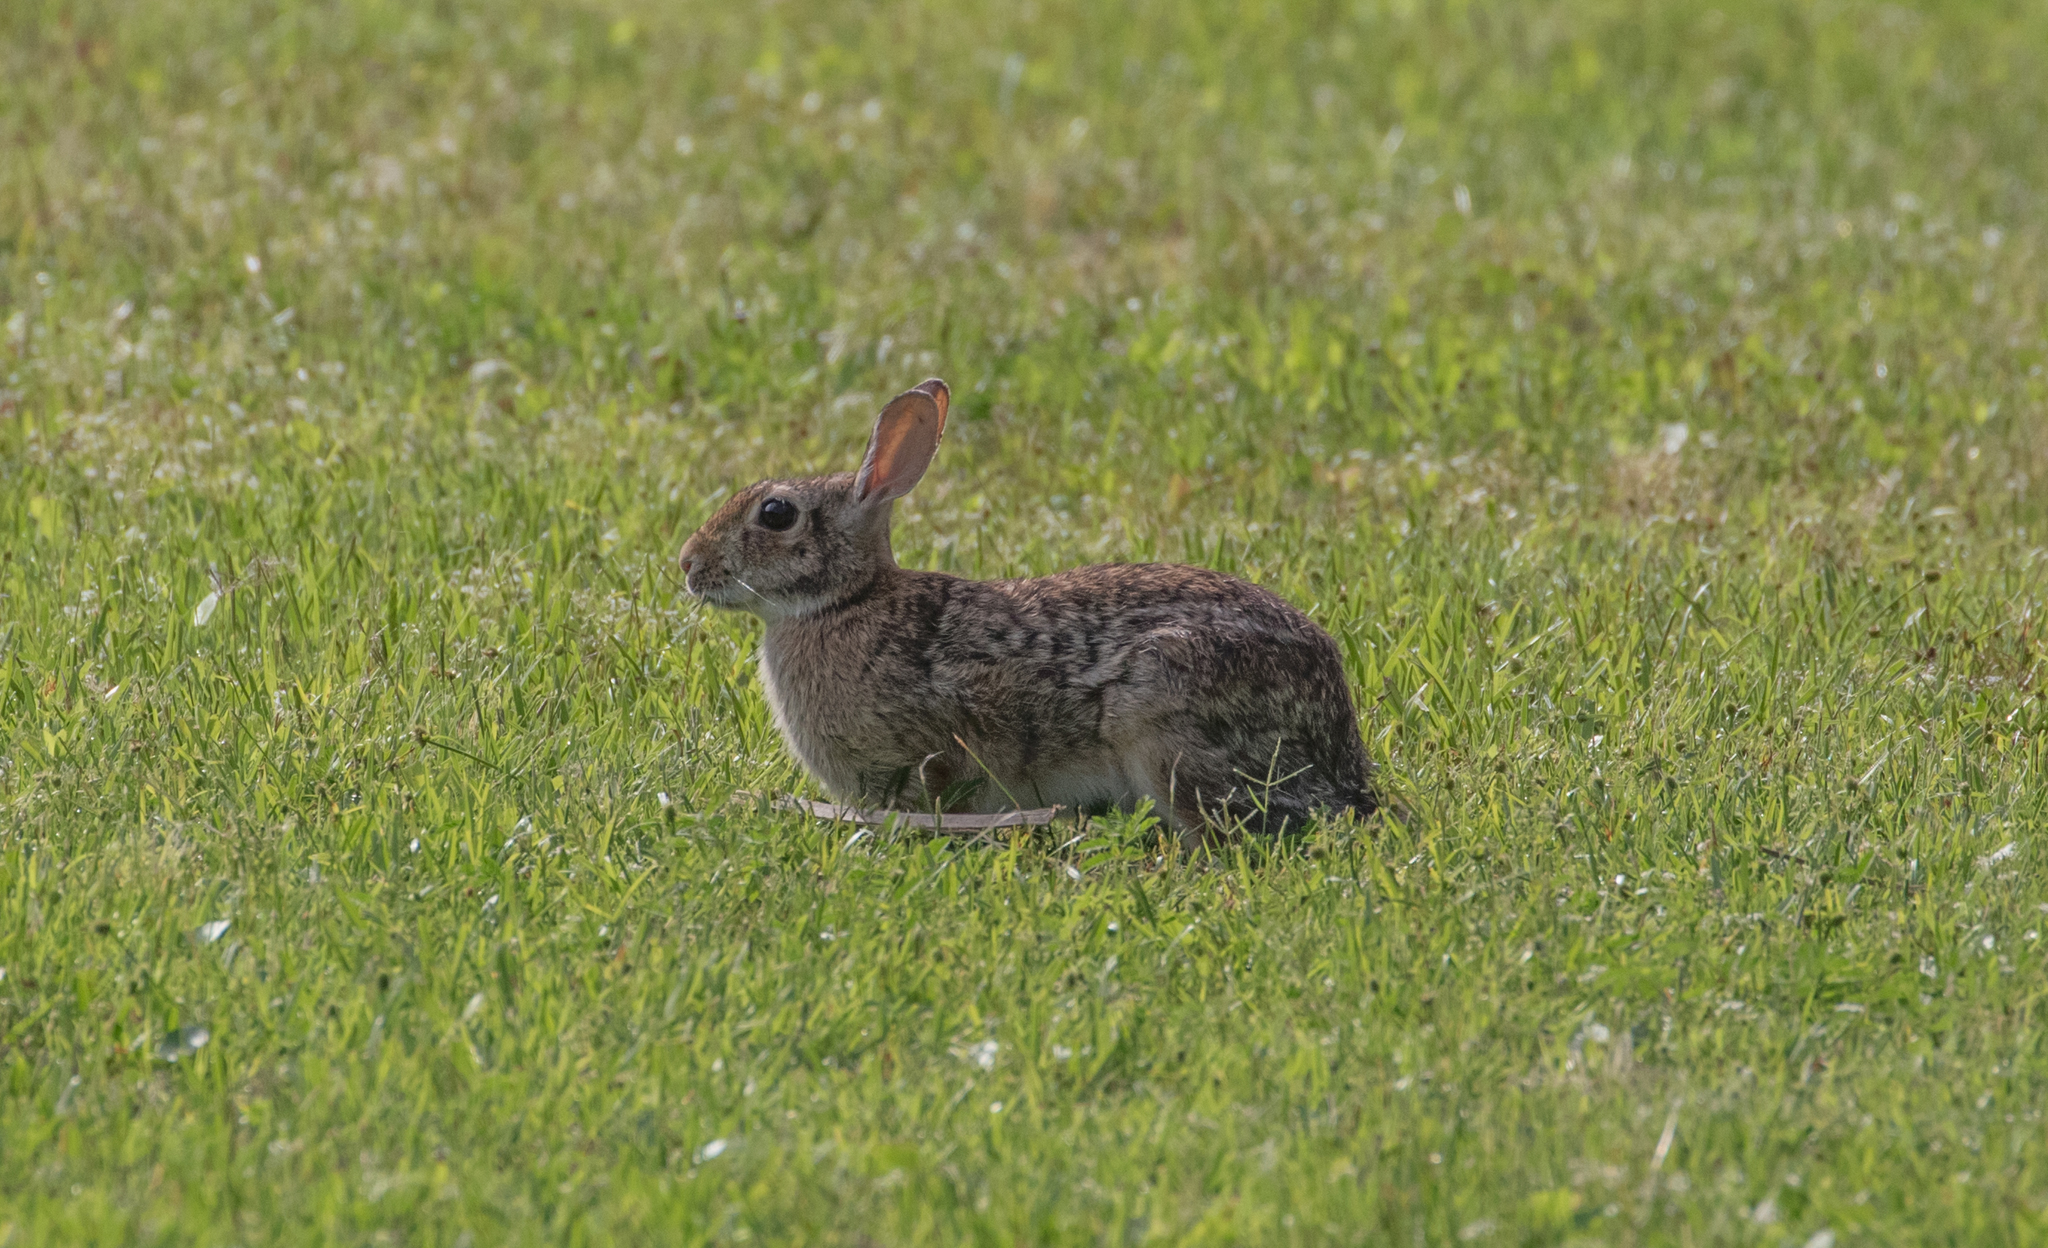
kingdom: Animalia
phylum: Chordata
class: Mammalia
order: Lagomorpha
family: Leporidae
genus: Sylvilagus
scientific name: Sylvilagus floridanus
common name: Eastern cottontail
